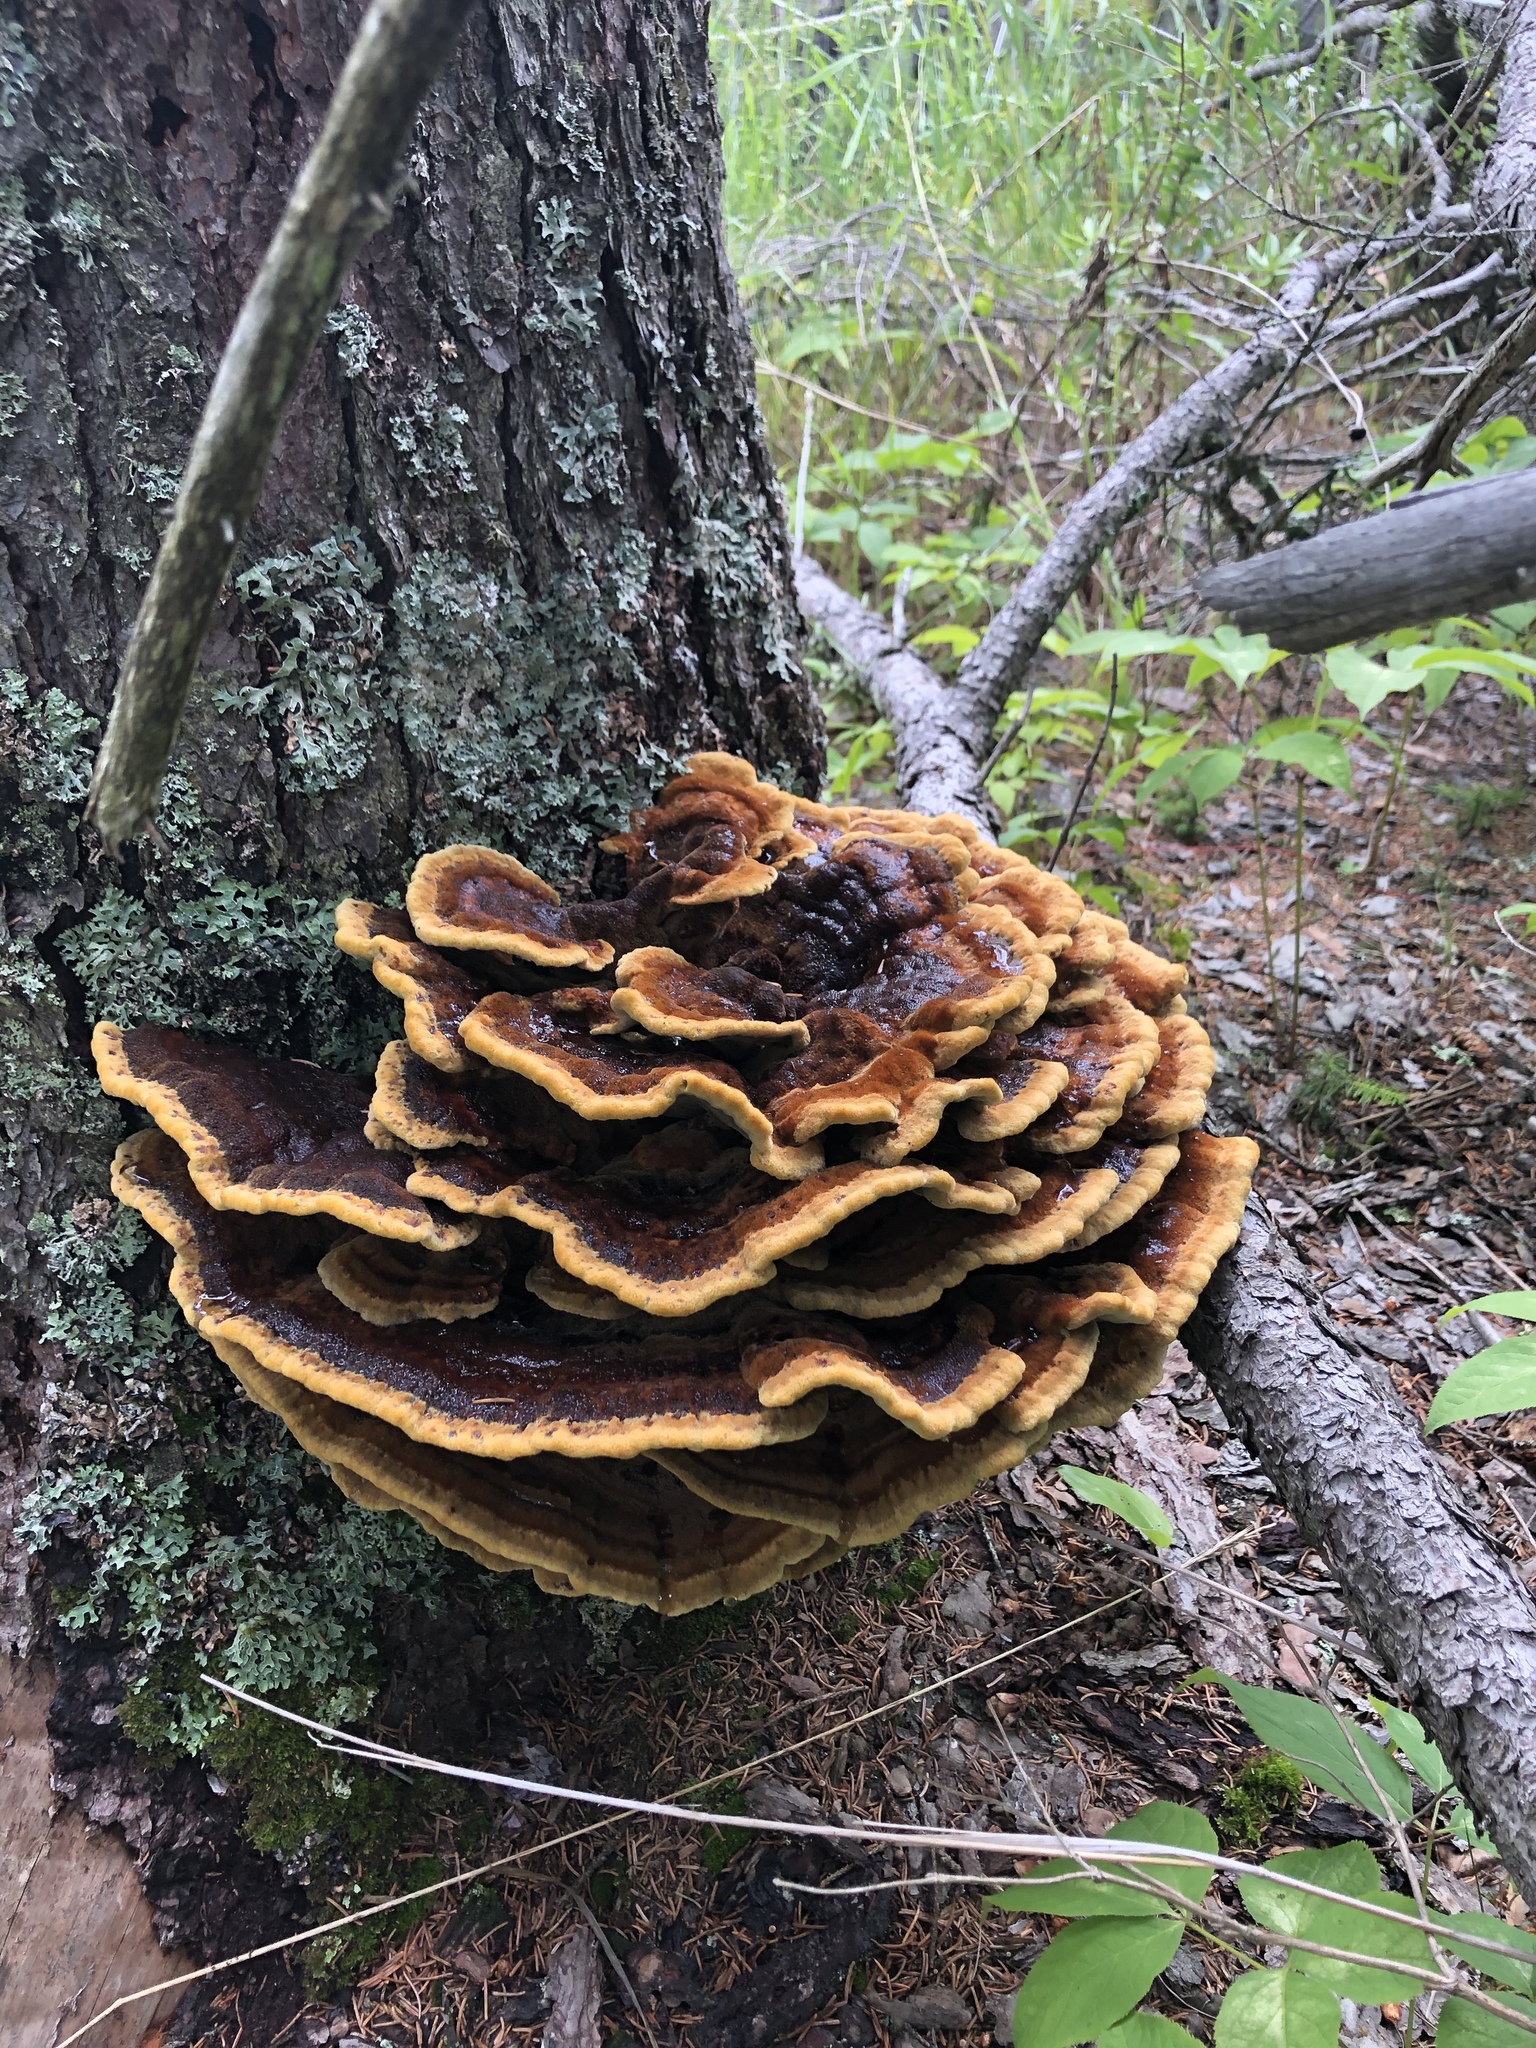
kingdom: Fungi
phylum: Basidiomycota
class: Agaricomycetes
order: Polyporales
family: Laetiporaceae
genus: Phaeolus
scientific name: Phaeolus schweinitzii
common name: Dyer's mazegill
